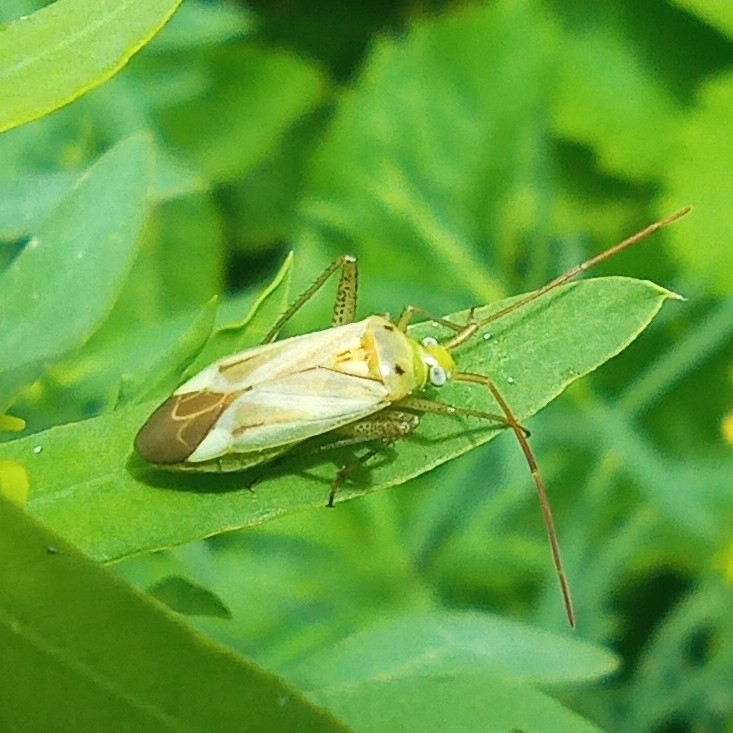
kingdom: Animalia
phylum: Arthropoda
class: Insecta
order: Hemiptera
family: Miridae
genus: Adelphocoris
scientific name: Adelphocoris lineolatus
